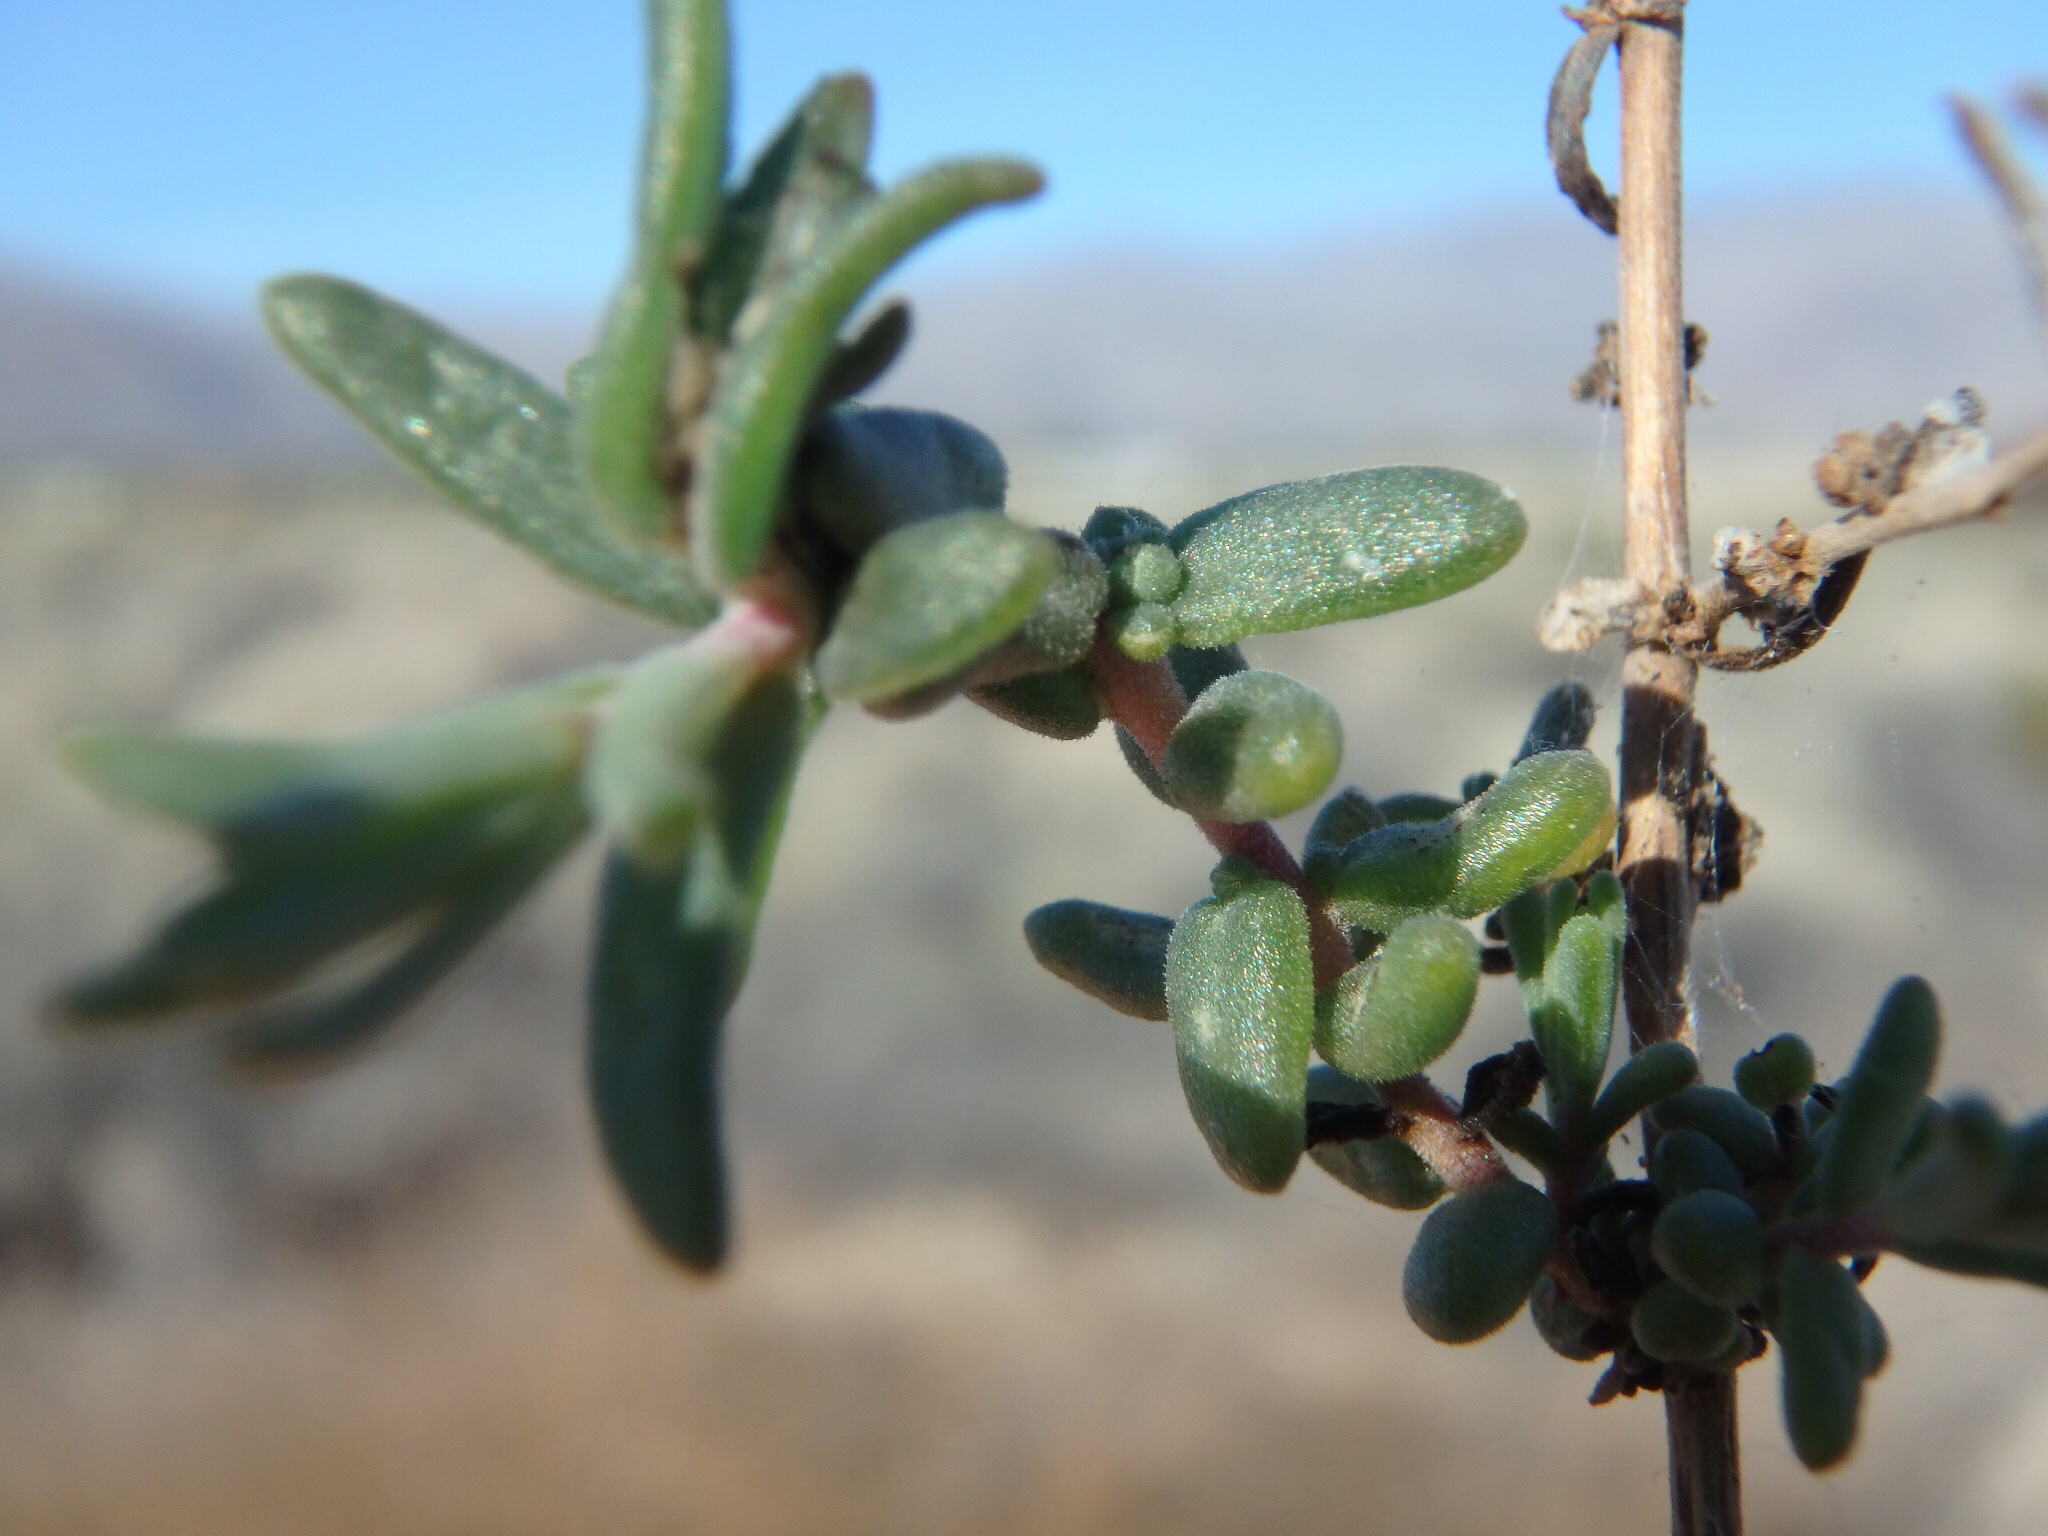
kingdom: Plantae
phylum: Tracheophyta
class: Magnoliopsida
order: Caryophyllales
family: Amaranthaceae
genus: Suaeda
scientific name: Suaeda nigra
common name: Bush seepweed
